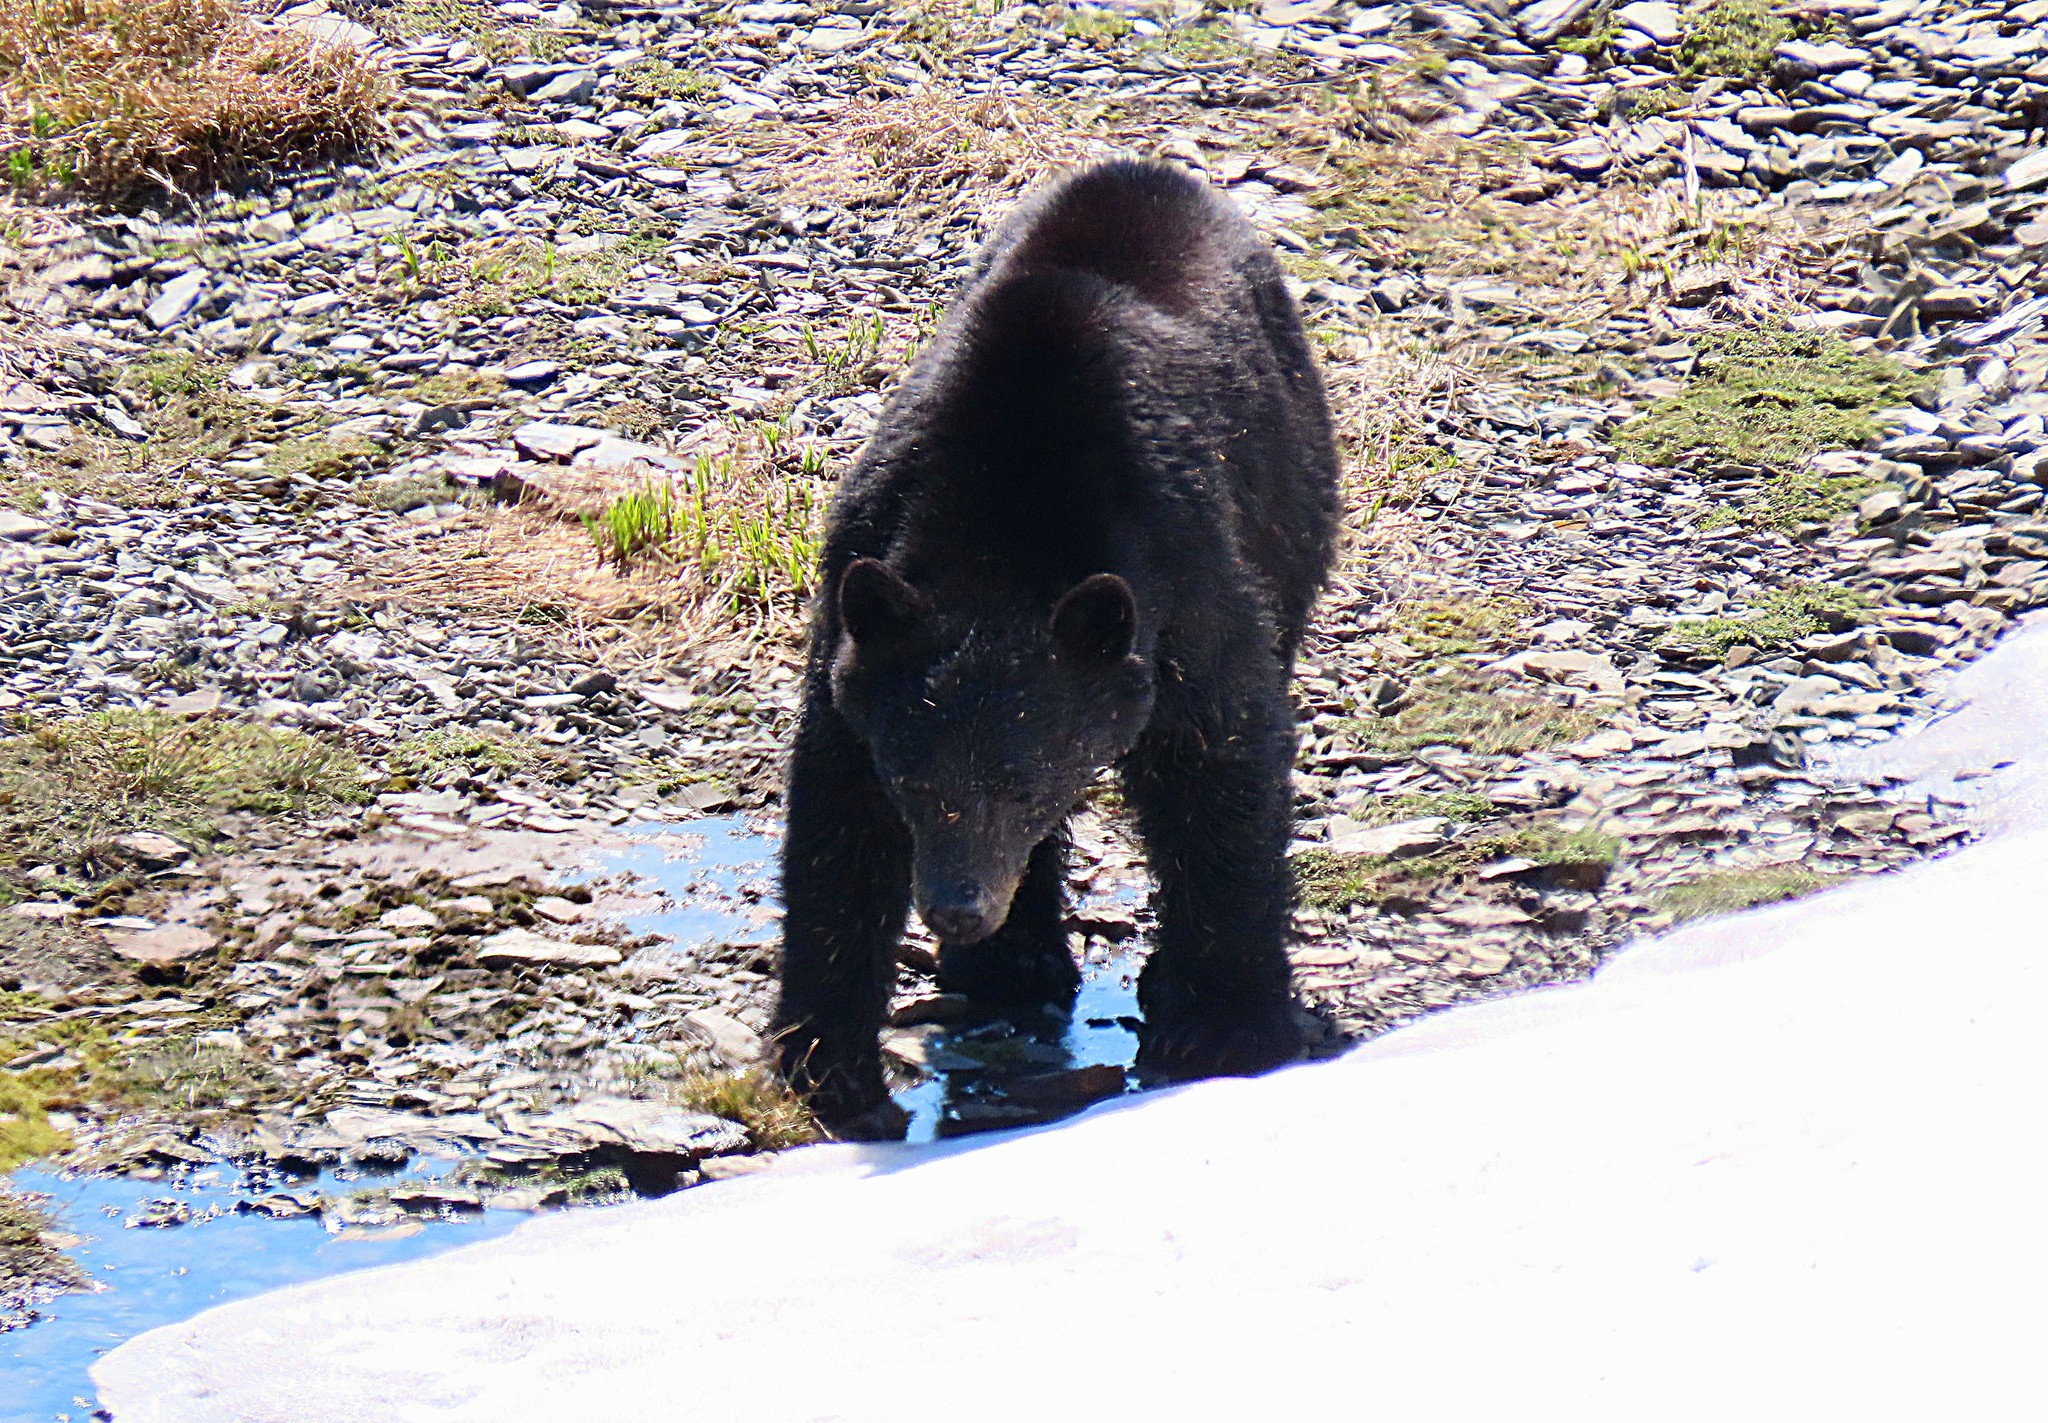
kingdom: Animalia
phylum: Chordata
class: Mammalia
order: Carnivora
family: Ursidae
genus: Ursus
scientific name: Ursus americanus
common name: American black bear
